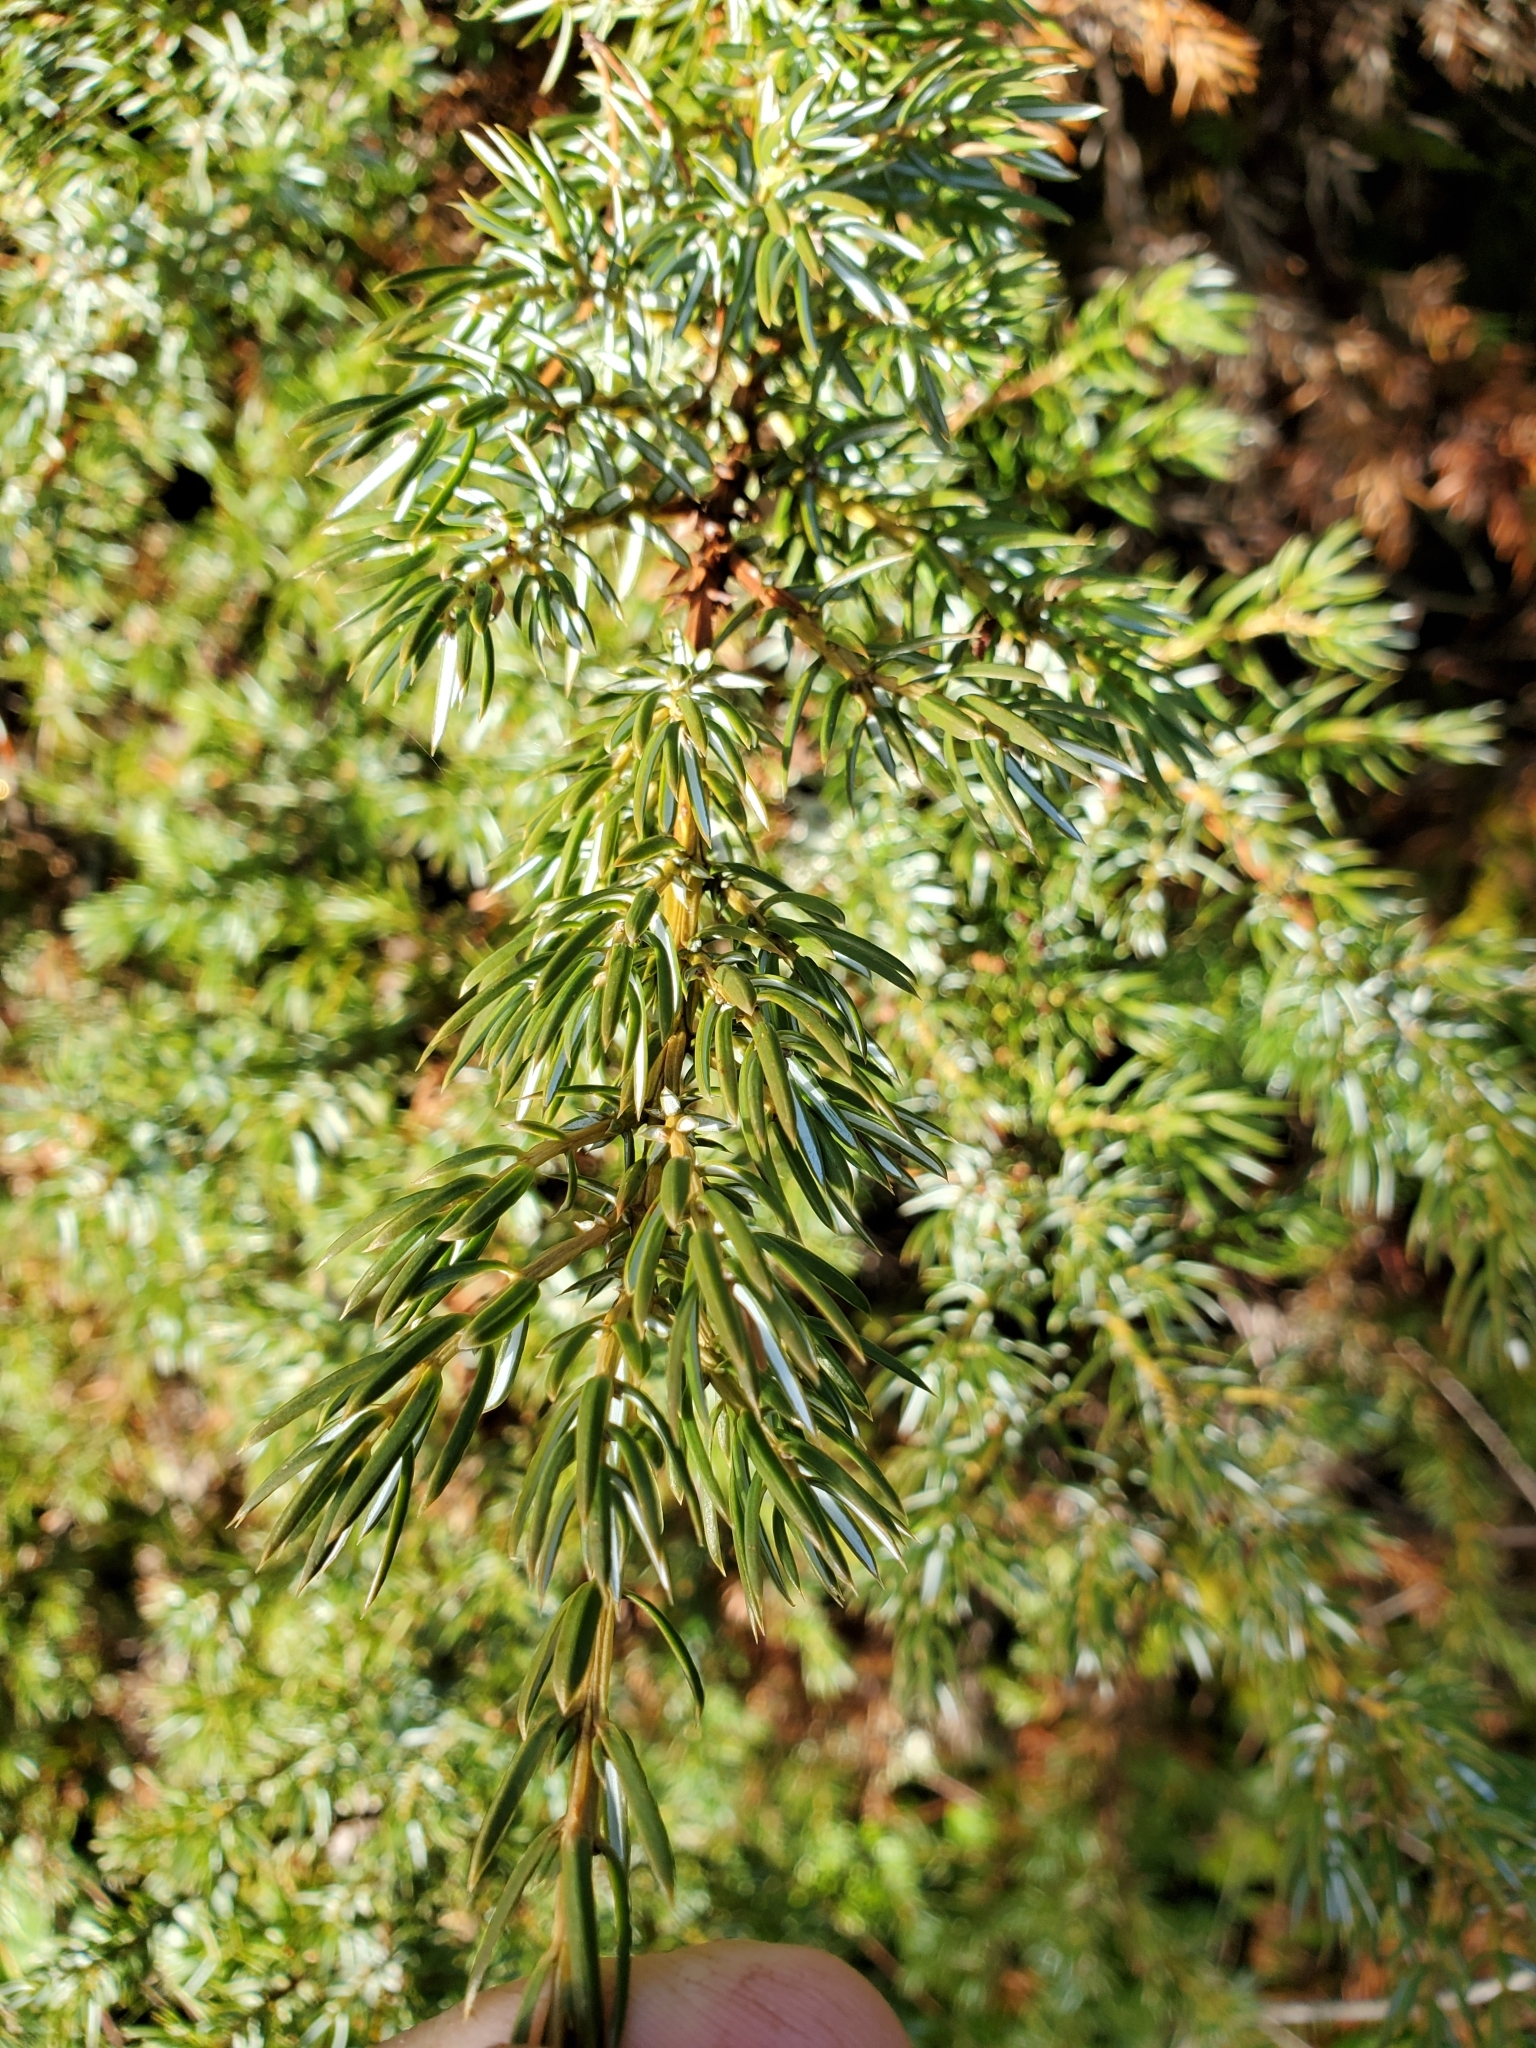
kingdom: Plantae
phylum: Tracheophyta
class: Pinopsida
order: Pinales
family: Cupressaceae
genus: Juniperus
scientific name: Juniperus communis
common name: Common juniper
